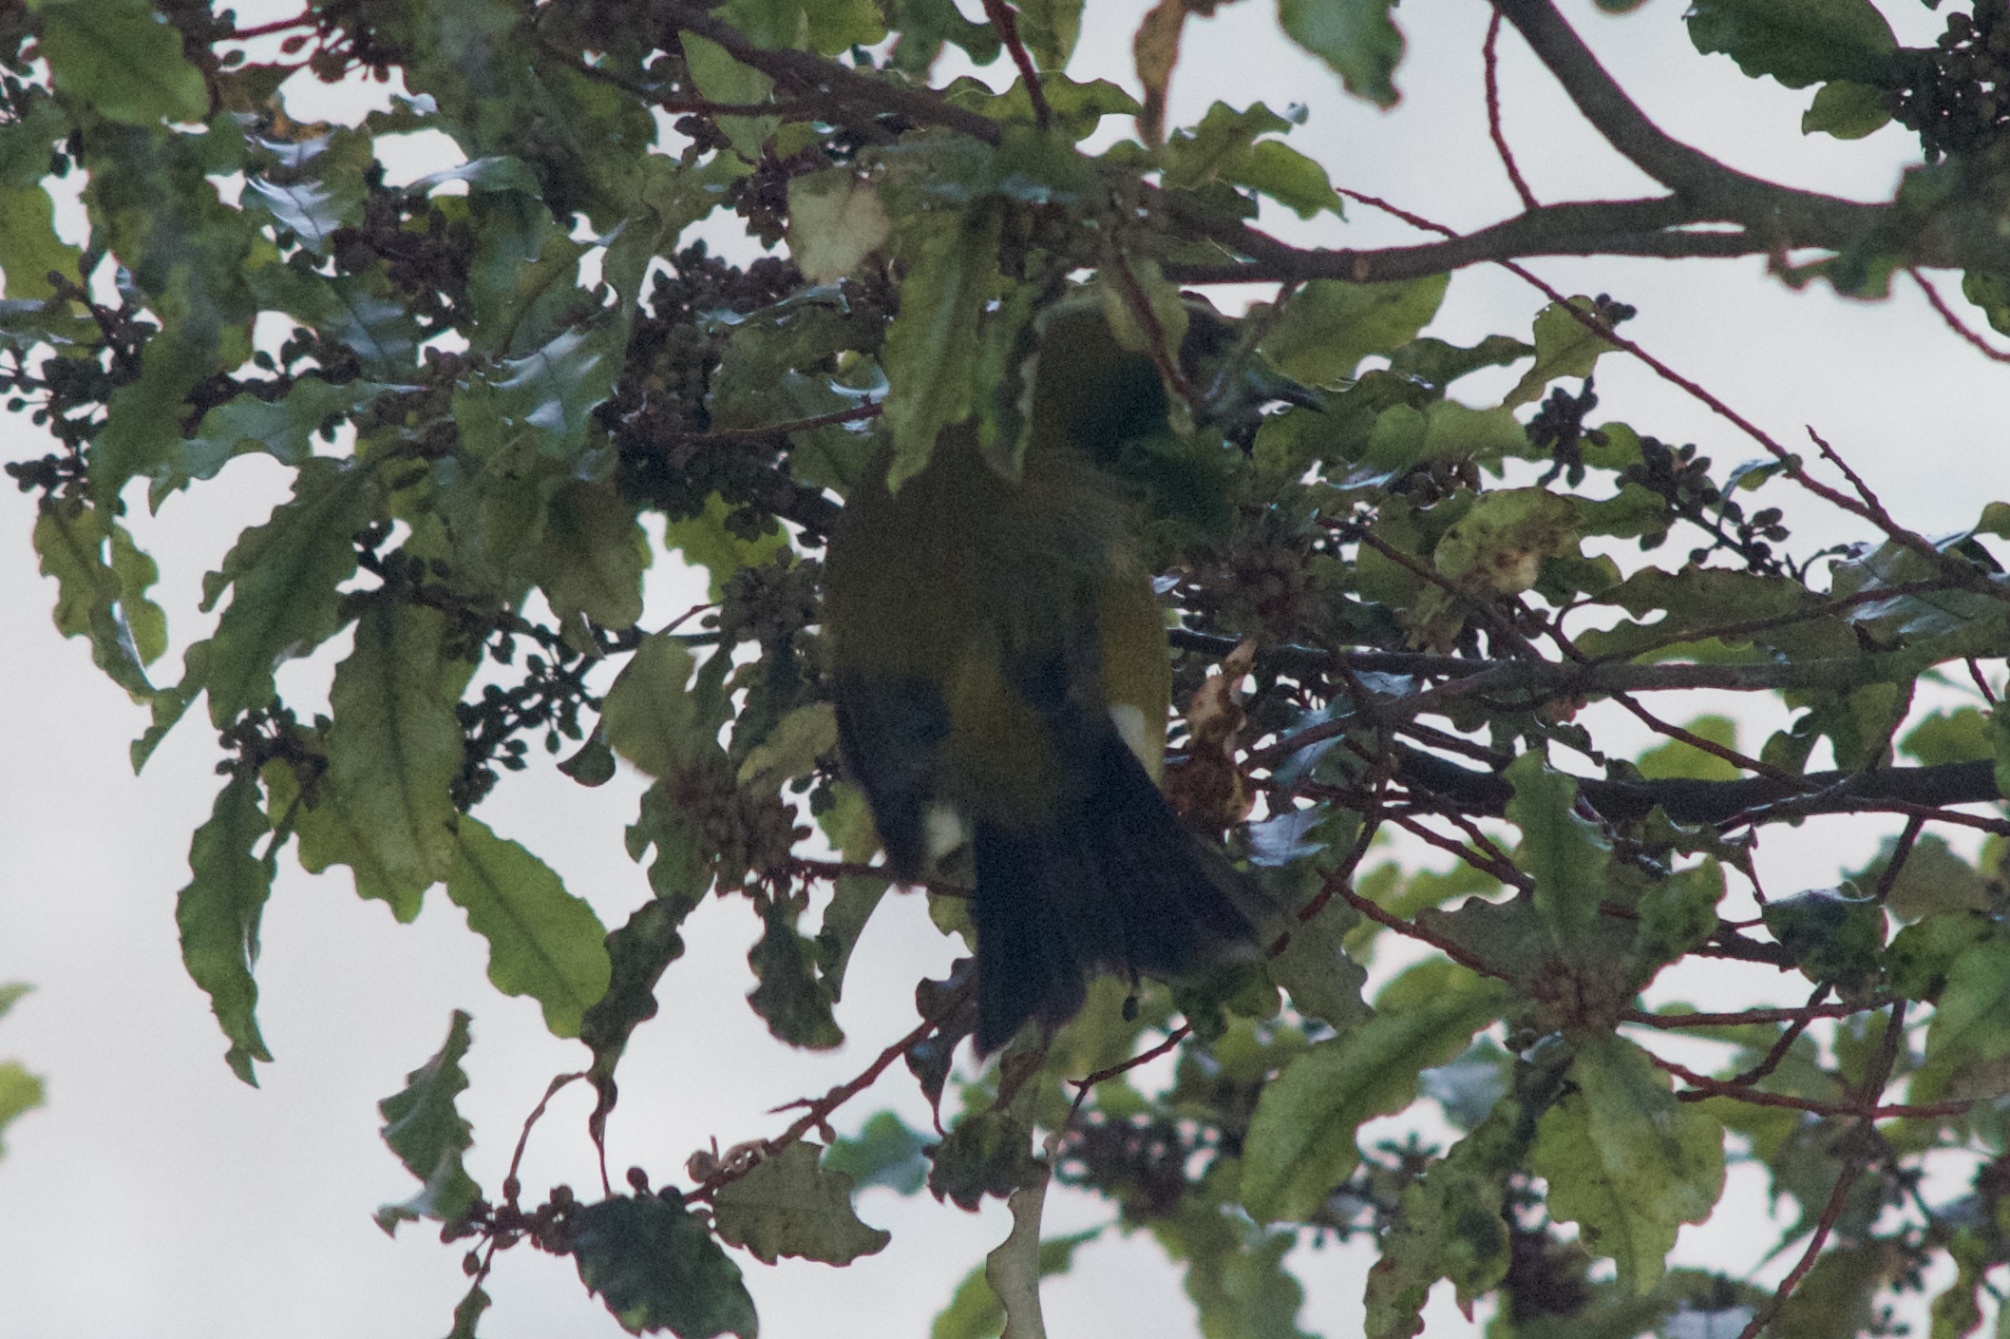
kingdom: Animalia
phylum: Chordata
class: Aves
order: Passeriformes
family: Meliphagidae
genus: Anthornis
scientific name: Anthornis melanura
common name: New zealand bellbird
